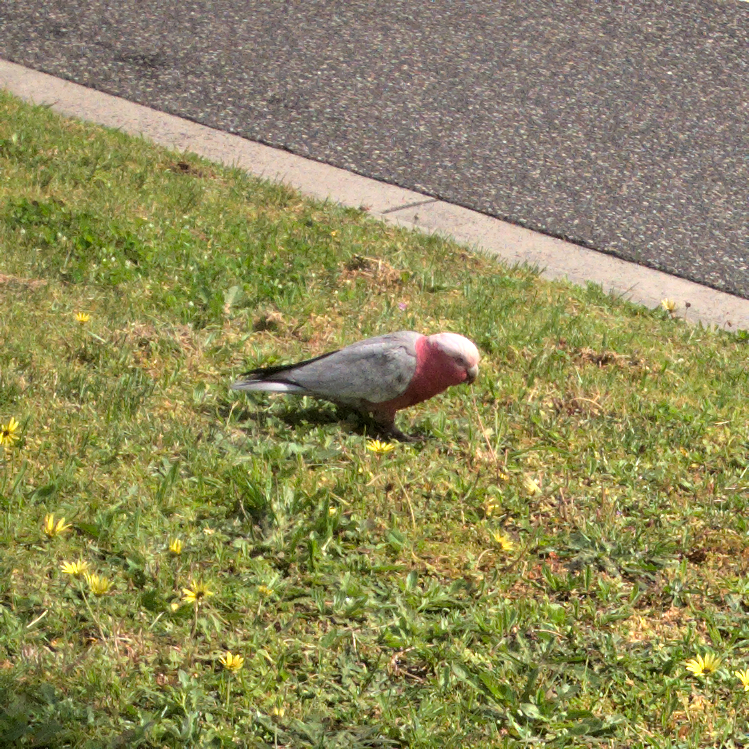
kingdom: Animalia
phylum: Chordata
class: Aves
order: Psittaciformes
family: Psittacidae
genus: Eolophus
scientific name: Eolophus roseicapilla
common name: Galah
